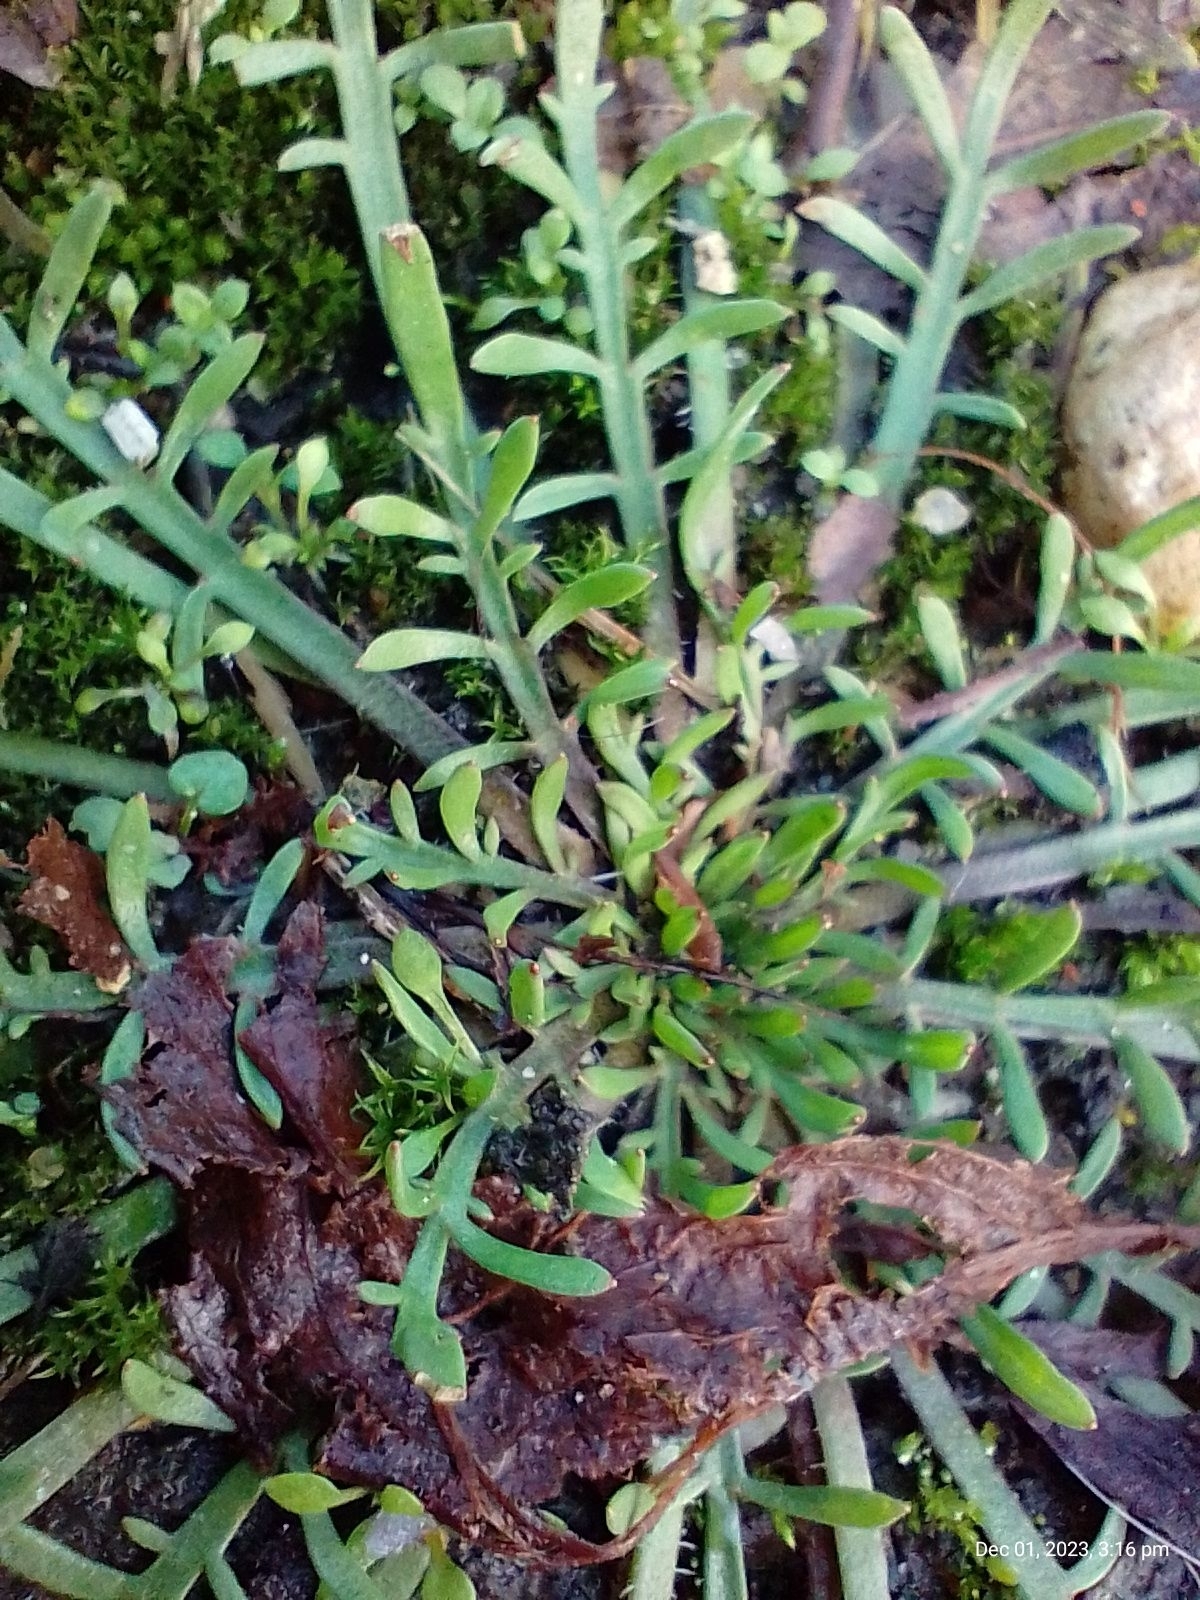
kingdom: Plantae
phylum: Tracheophyta
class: Magnoliopsida
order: Lamiales
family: Plantaginaceae
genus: Plantago
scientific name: Plantago coronopus
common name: Buck's-horn plantain
